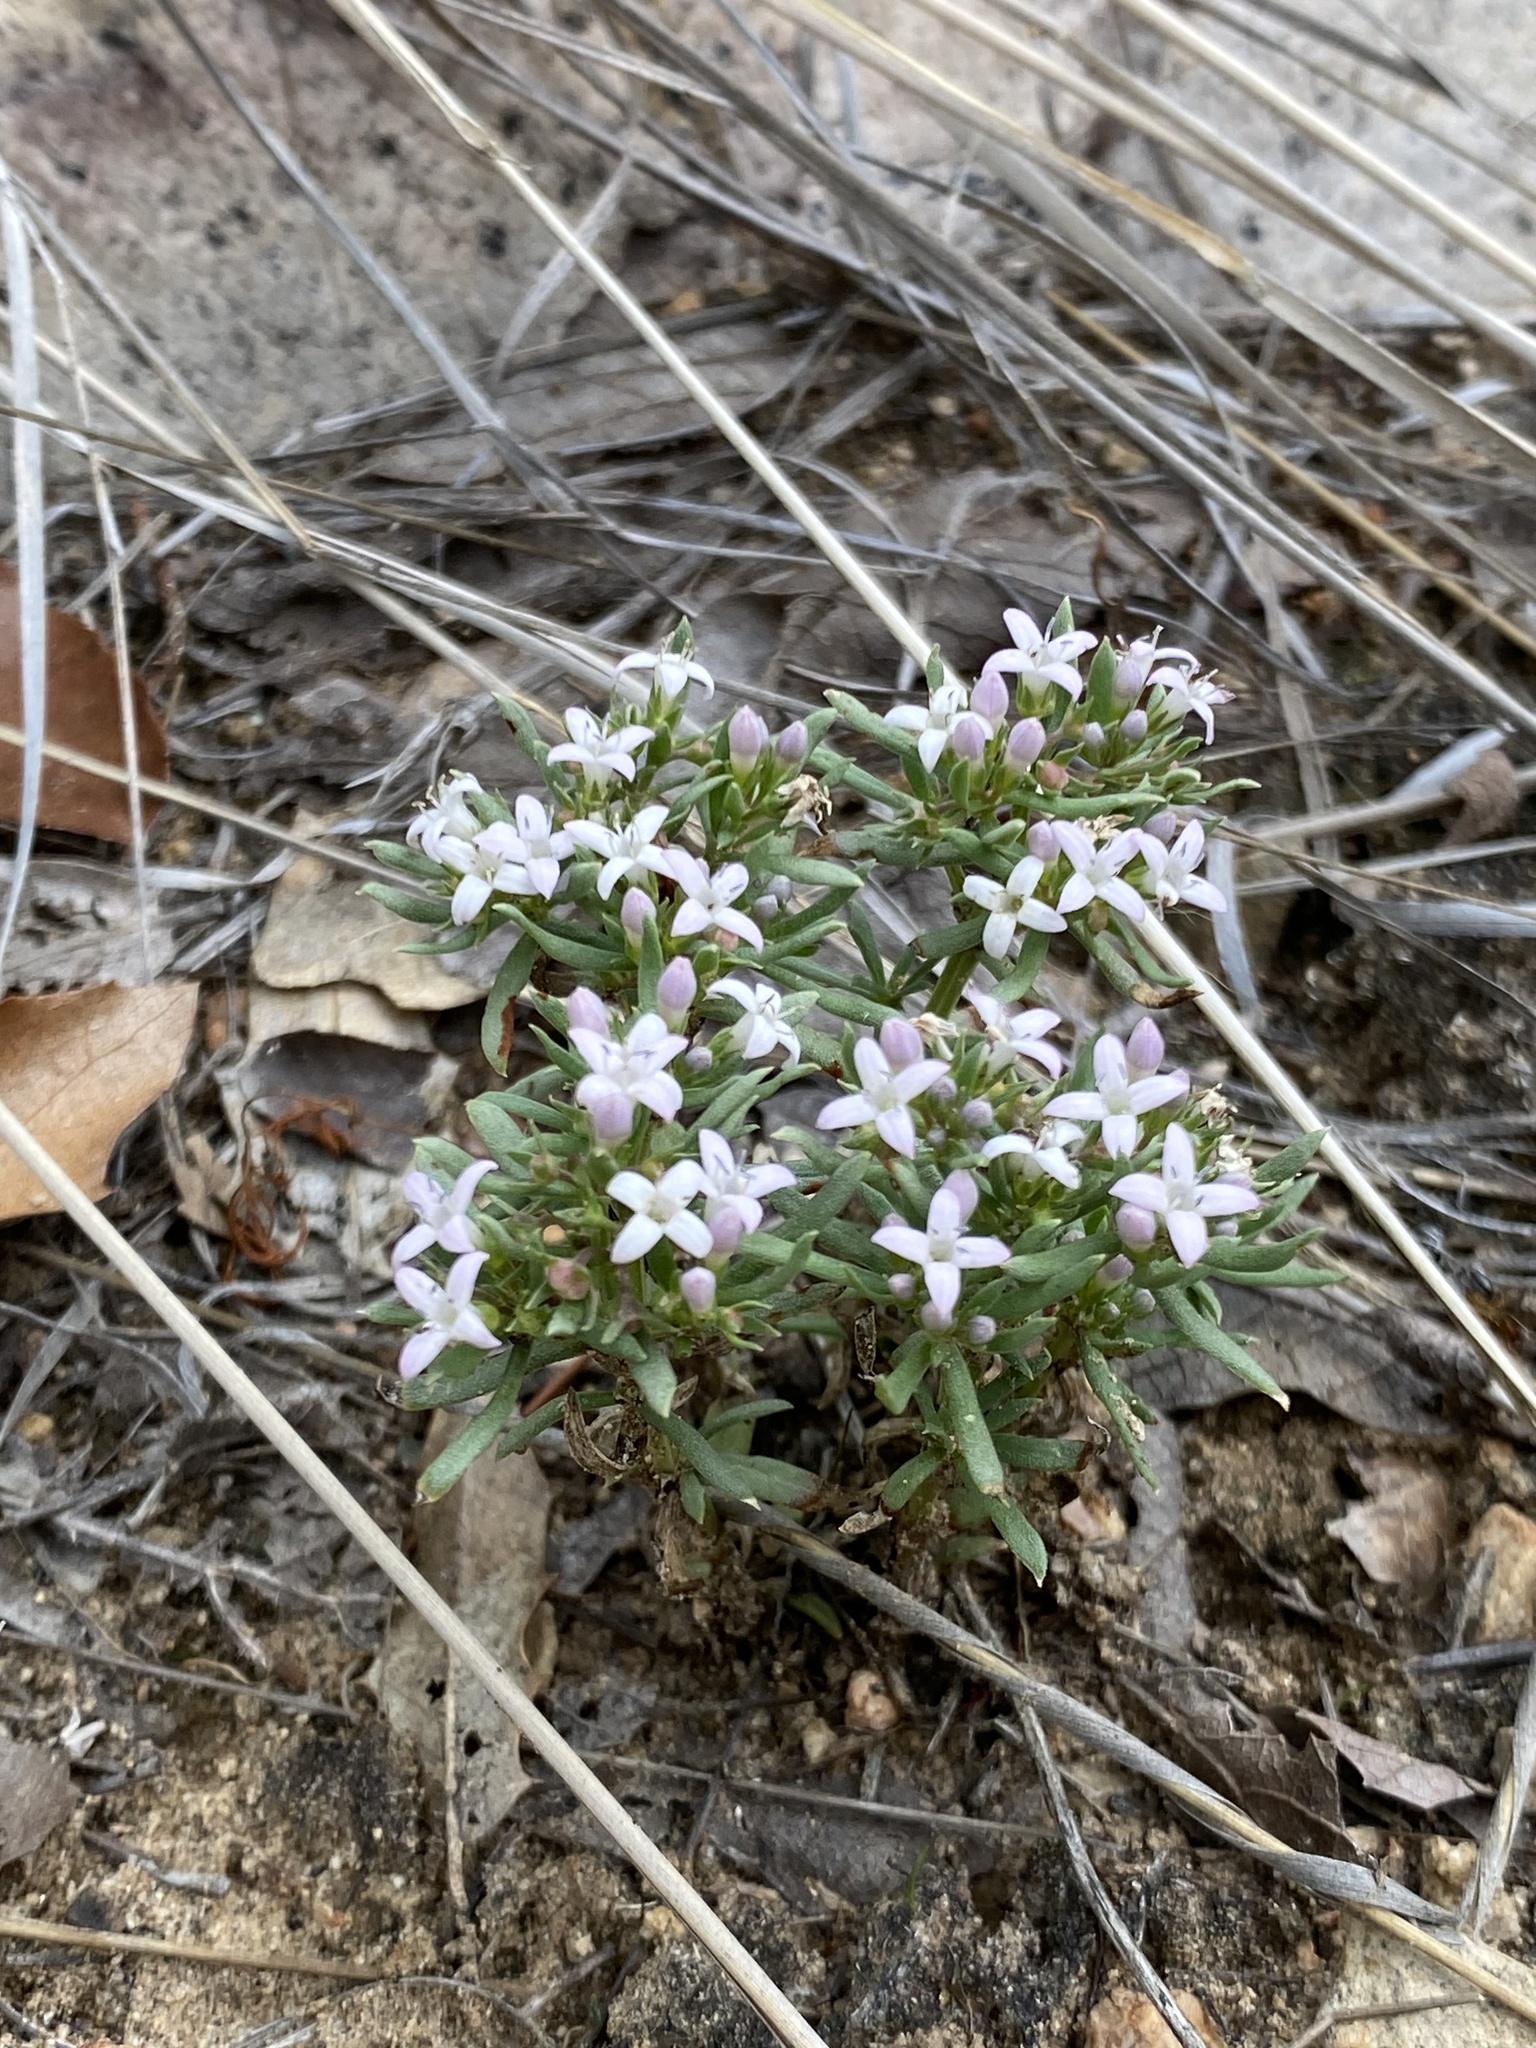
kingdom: Plantae
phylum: Tracheophyta
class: Magnoliopsida
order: Gentianales
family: Rubiaceae
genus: Houstonia
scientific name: Houstonia wrightii
